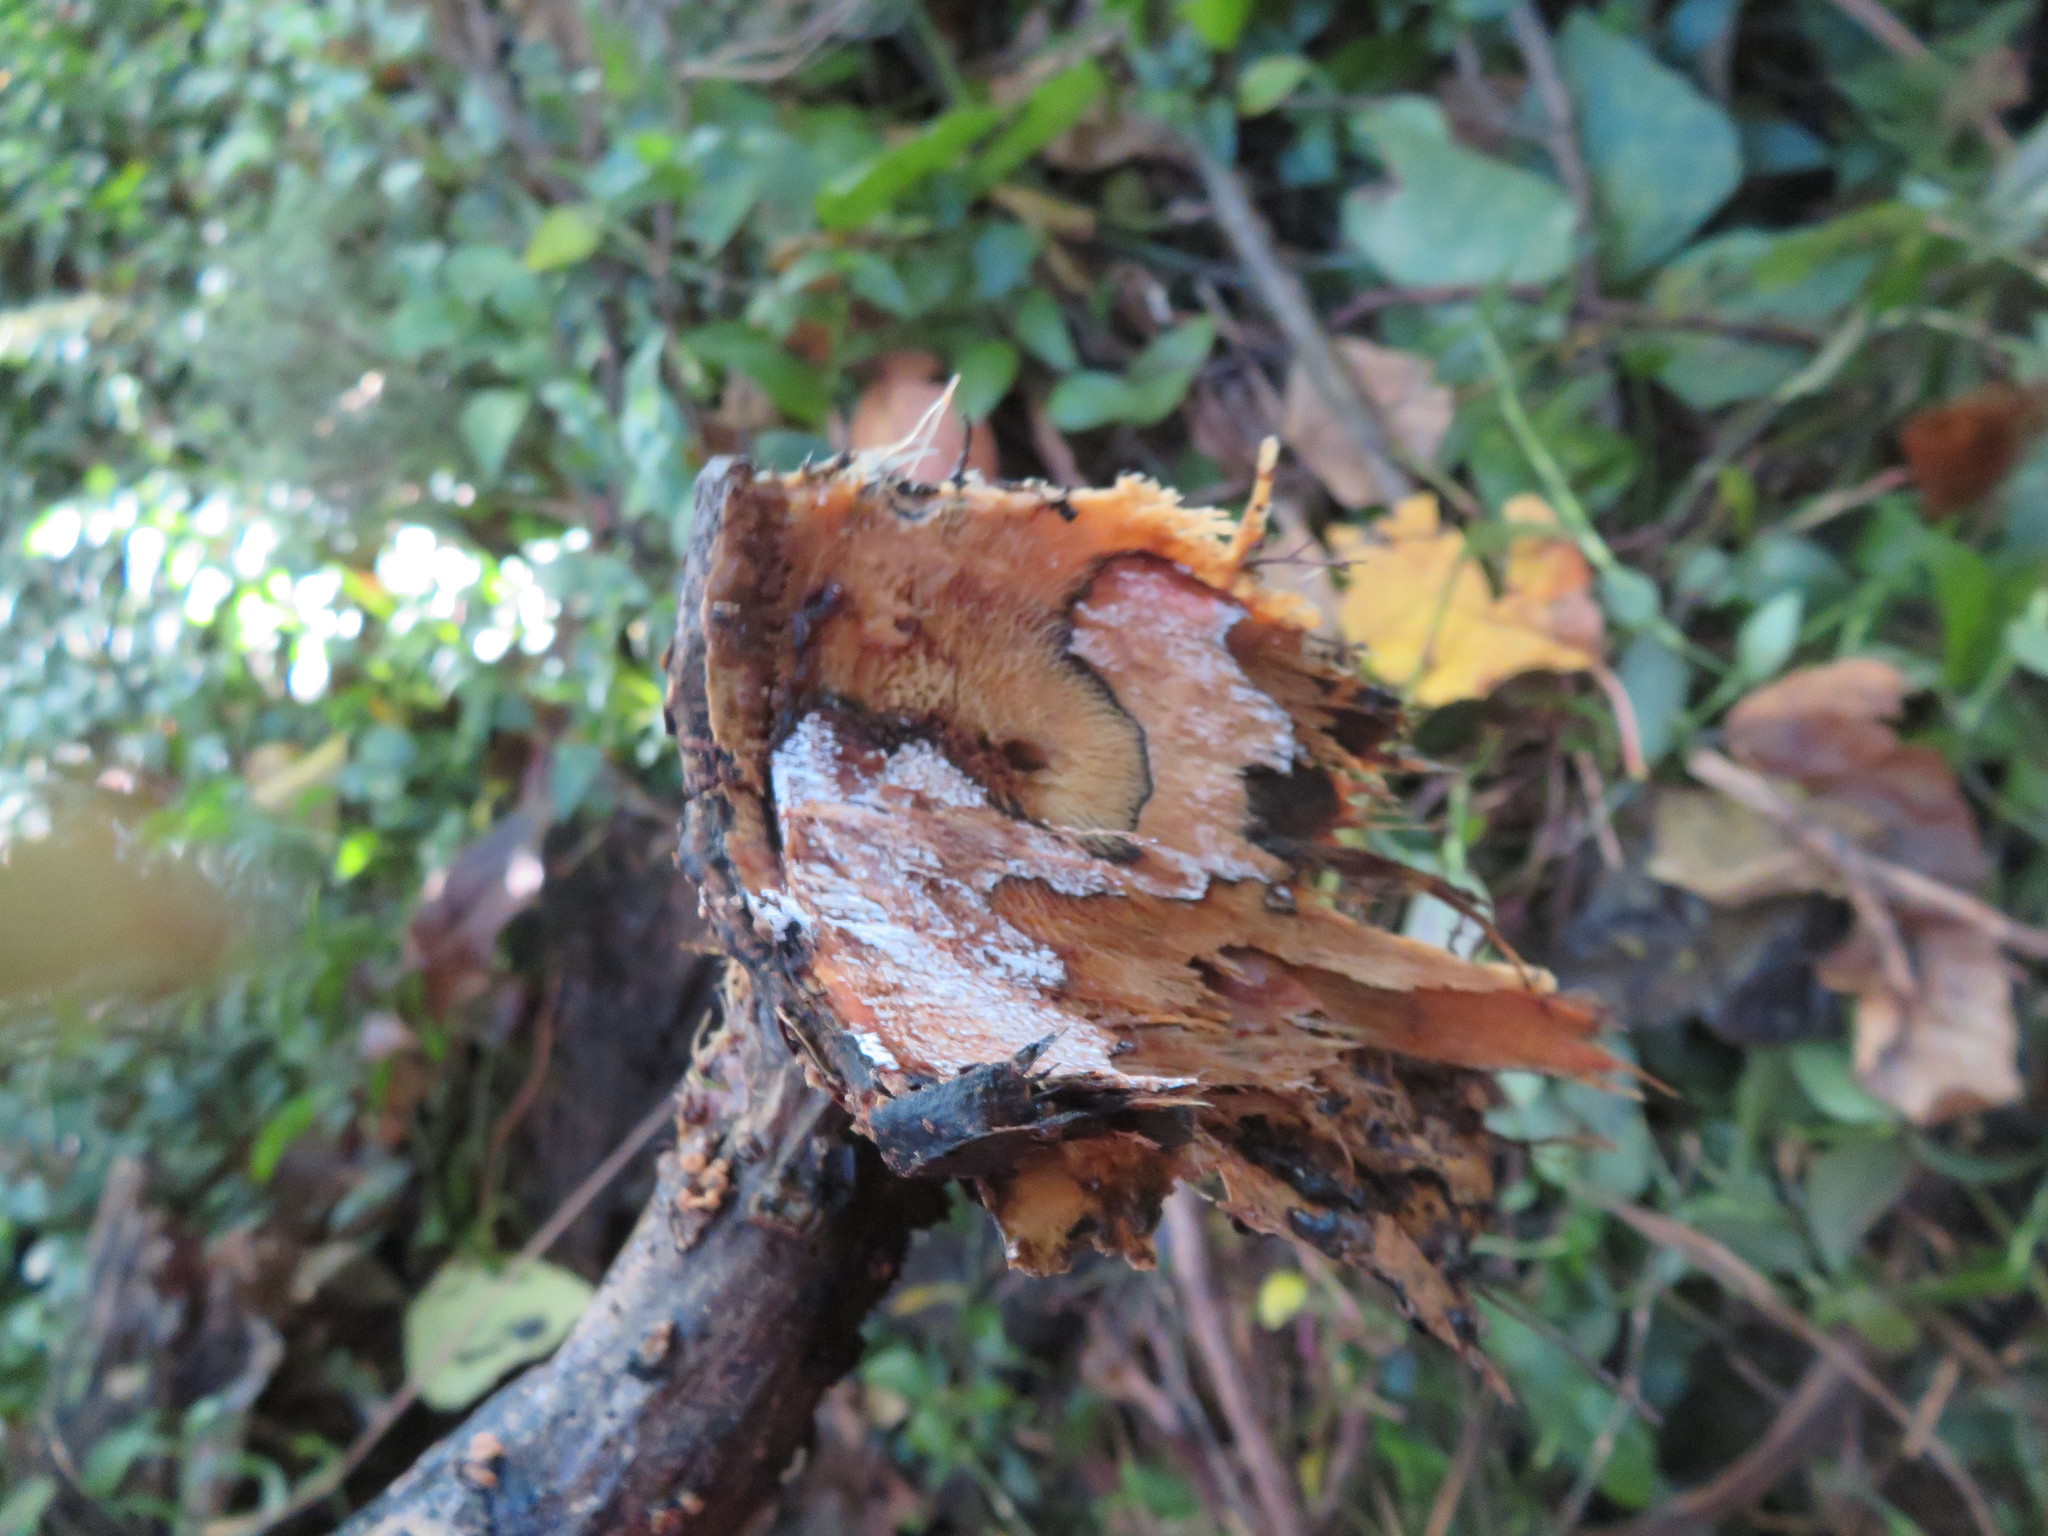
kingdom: Plantae
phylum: Tracheophyta
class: Magnoliopsida
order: Fabales
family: Fabaceae
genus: Erythrina
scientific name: Erythrina sykesii
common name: Coraltree
